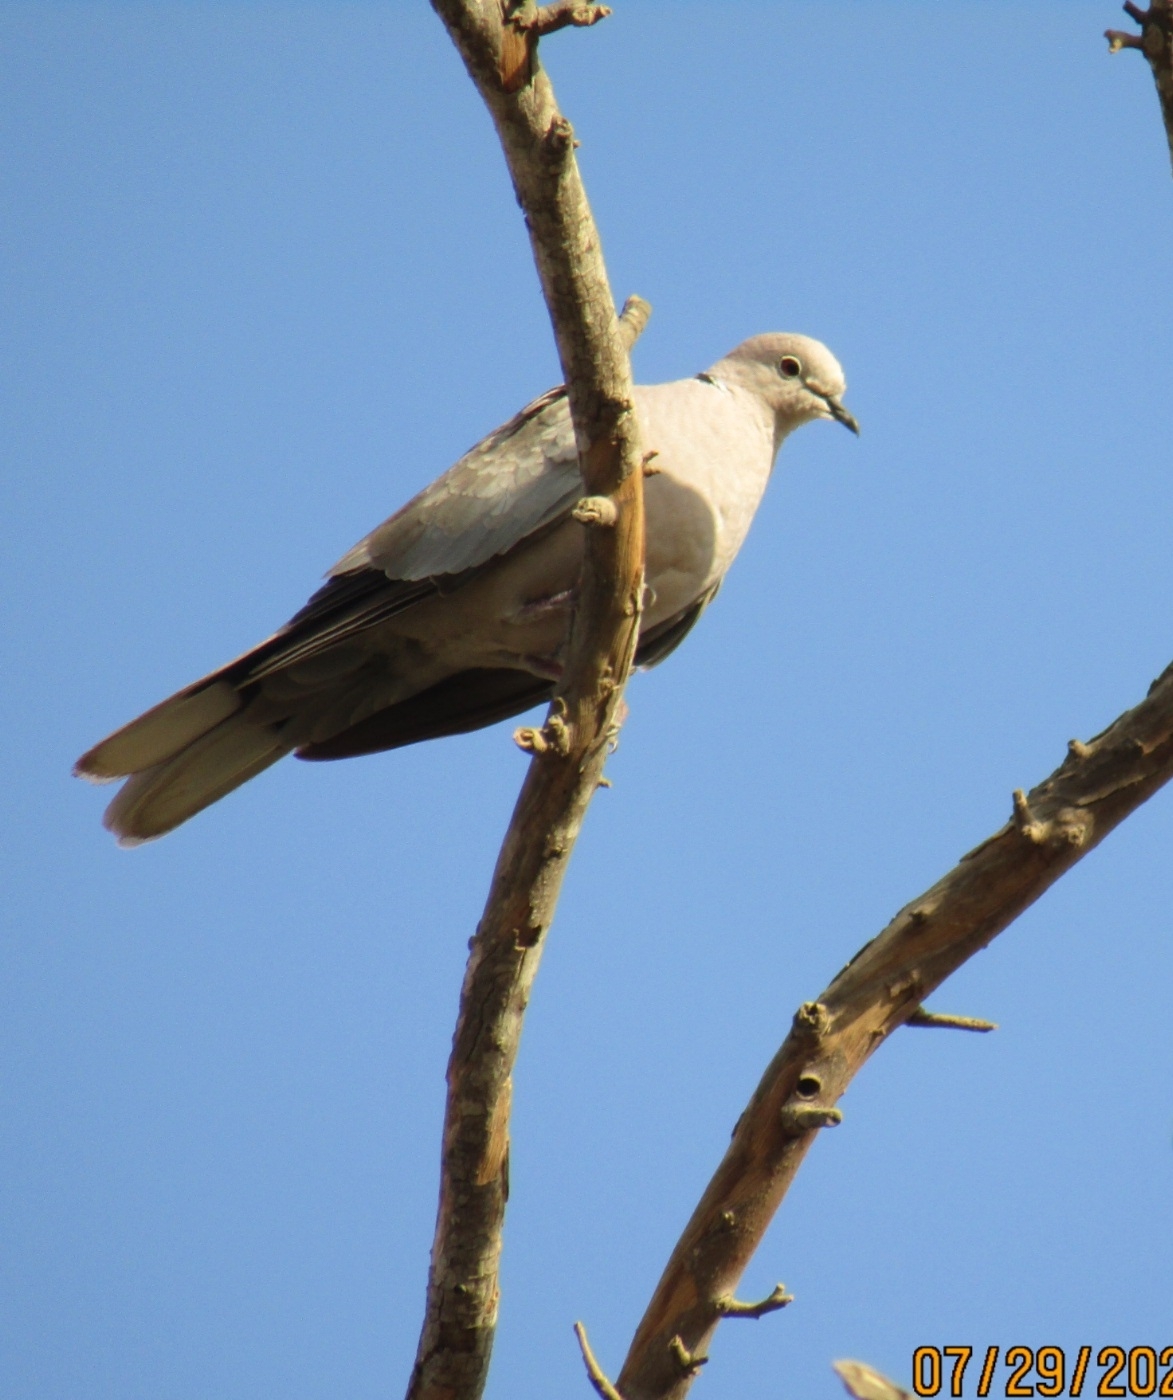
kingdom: Animalia
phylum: Chordata
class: Aves
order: Columbiformes
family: Columbidae
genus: Streptopelia
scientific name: Streptopelia decaocto
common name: Eurasian collared dove
